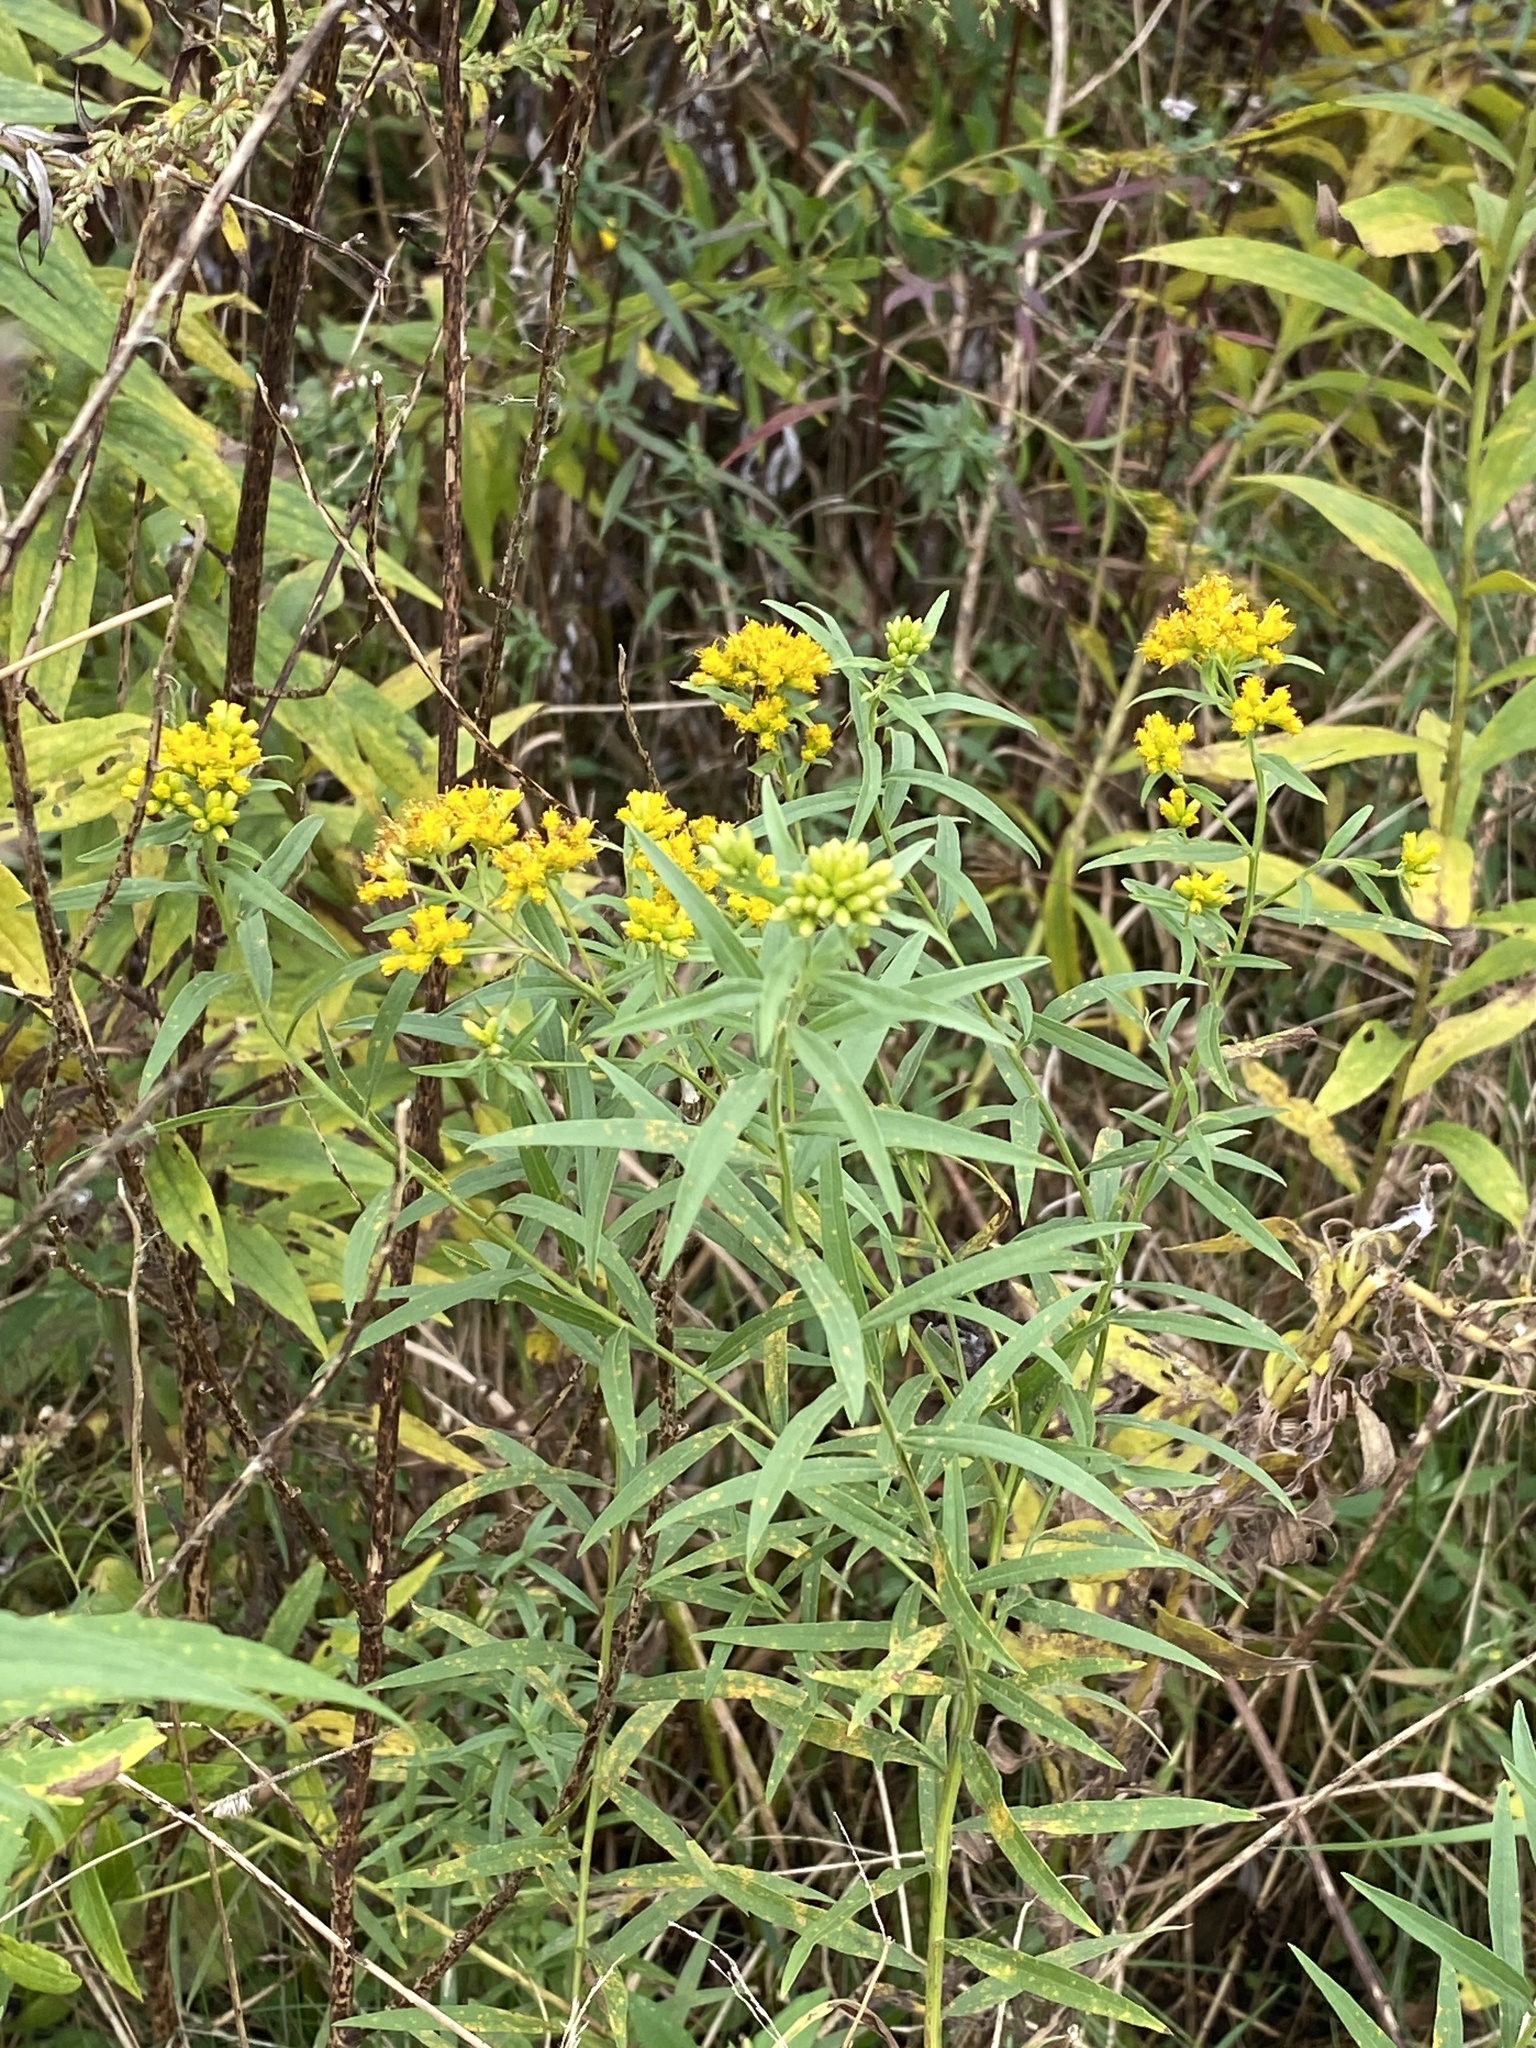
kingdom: Plantae
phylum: Tracheophyta
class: Magnoliopsida
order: Asterales
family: Asteraceae
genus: Euthamia
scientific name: Euthamia graminifolia
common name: Common goldentop
